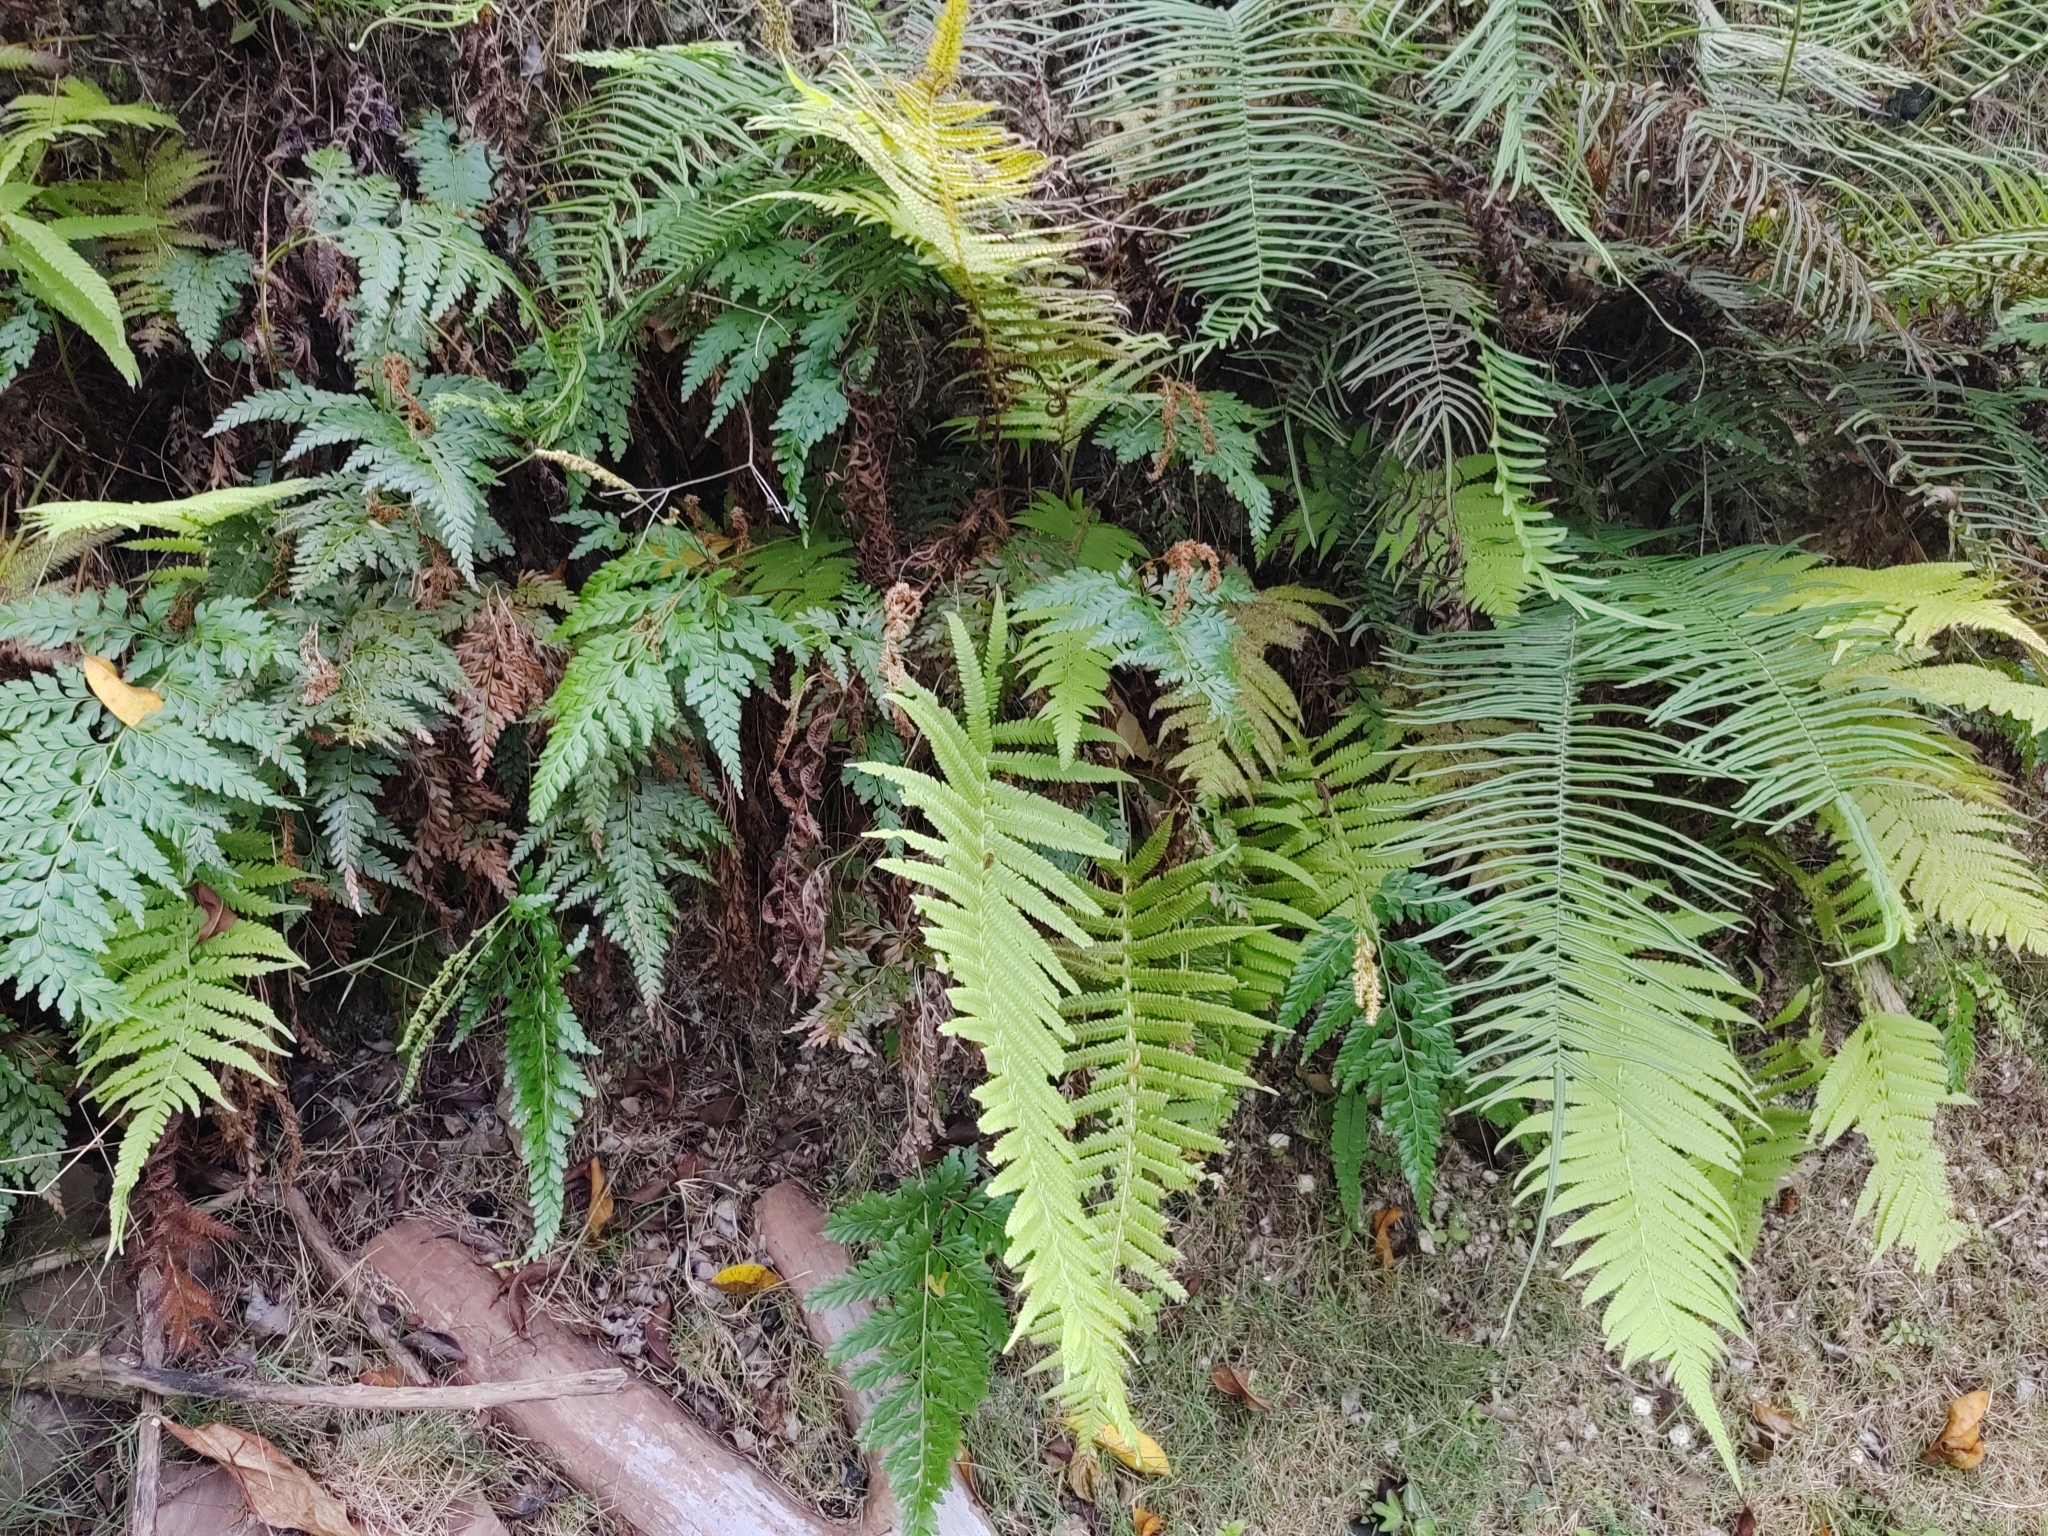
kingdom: Plantae
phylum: Tracheophyta
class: Polypodiopsida
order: Schizaeales
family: Anemiaceae
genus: Anemia
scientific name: Anemia adiantifolia
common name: Pine fern
